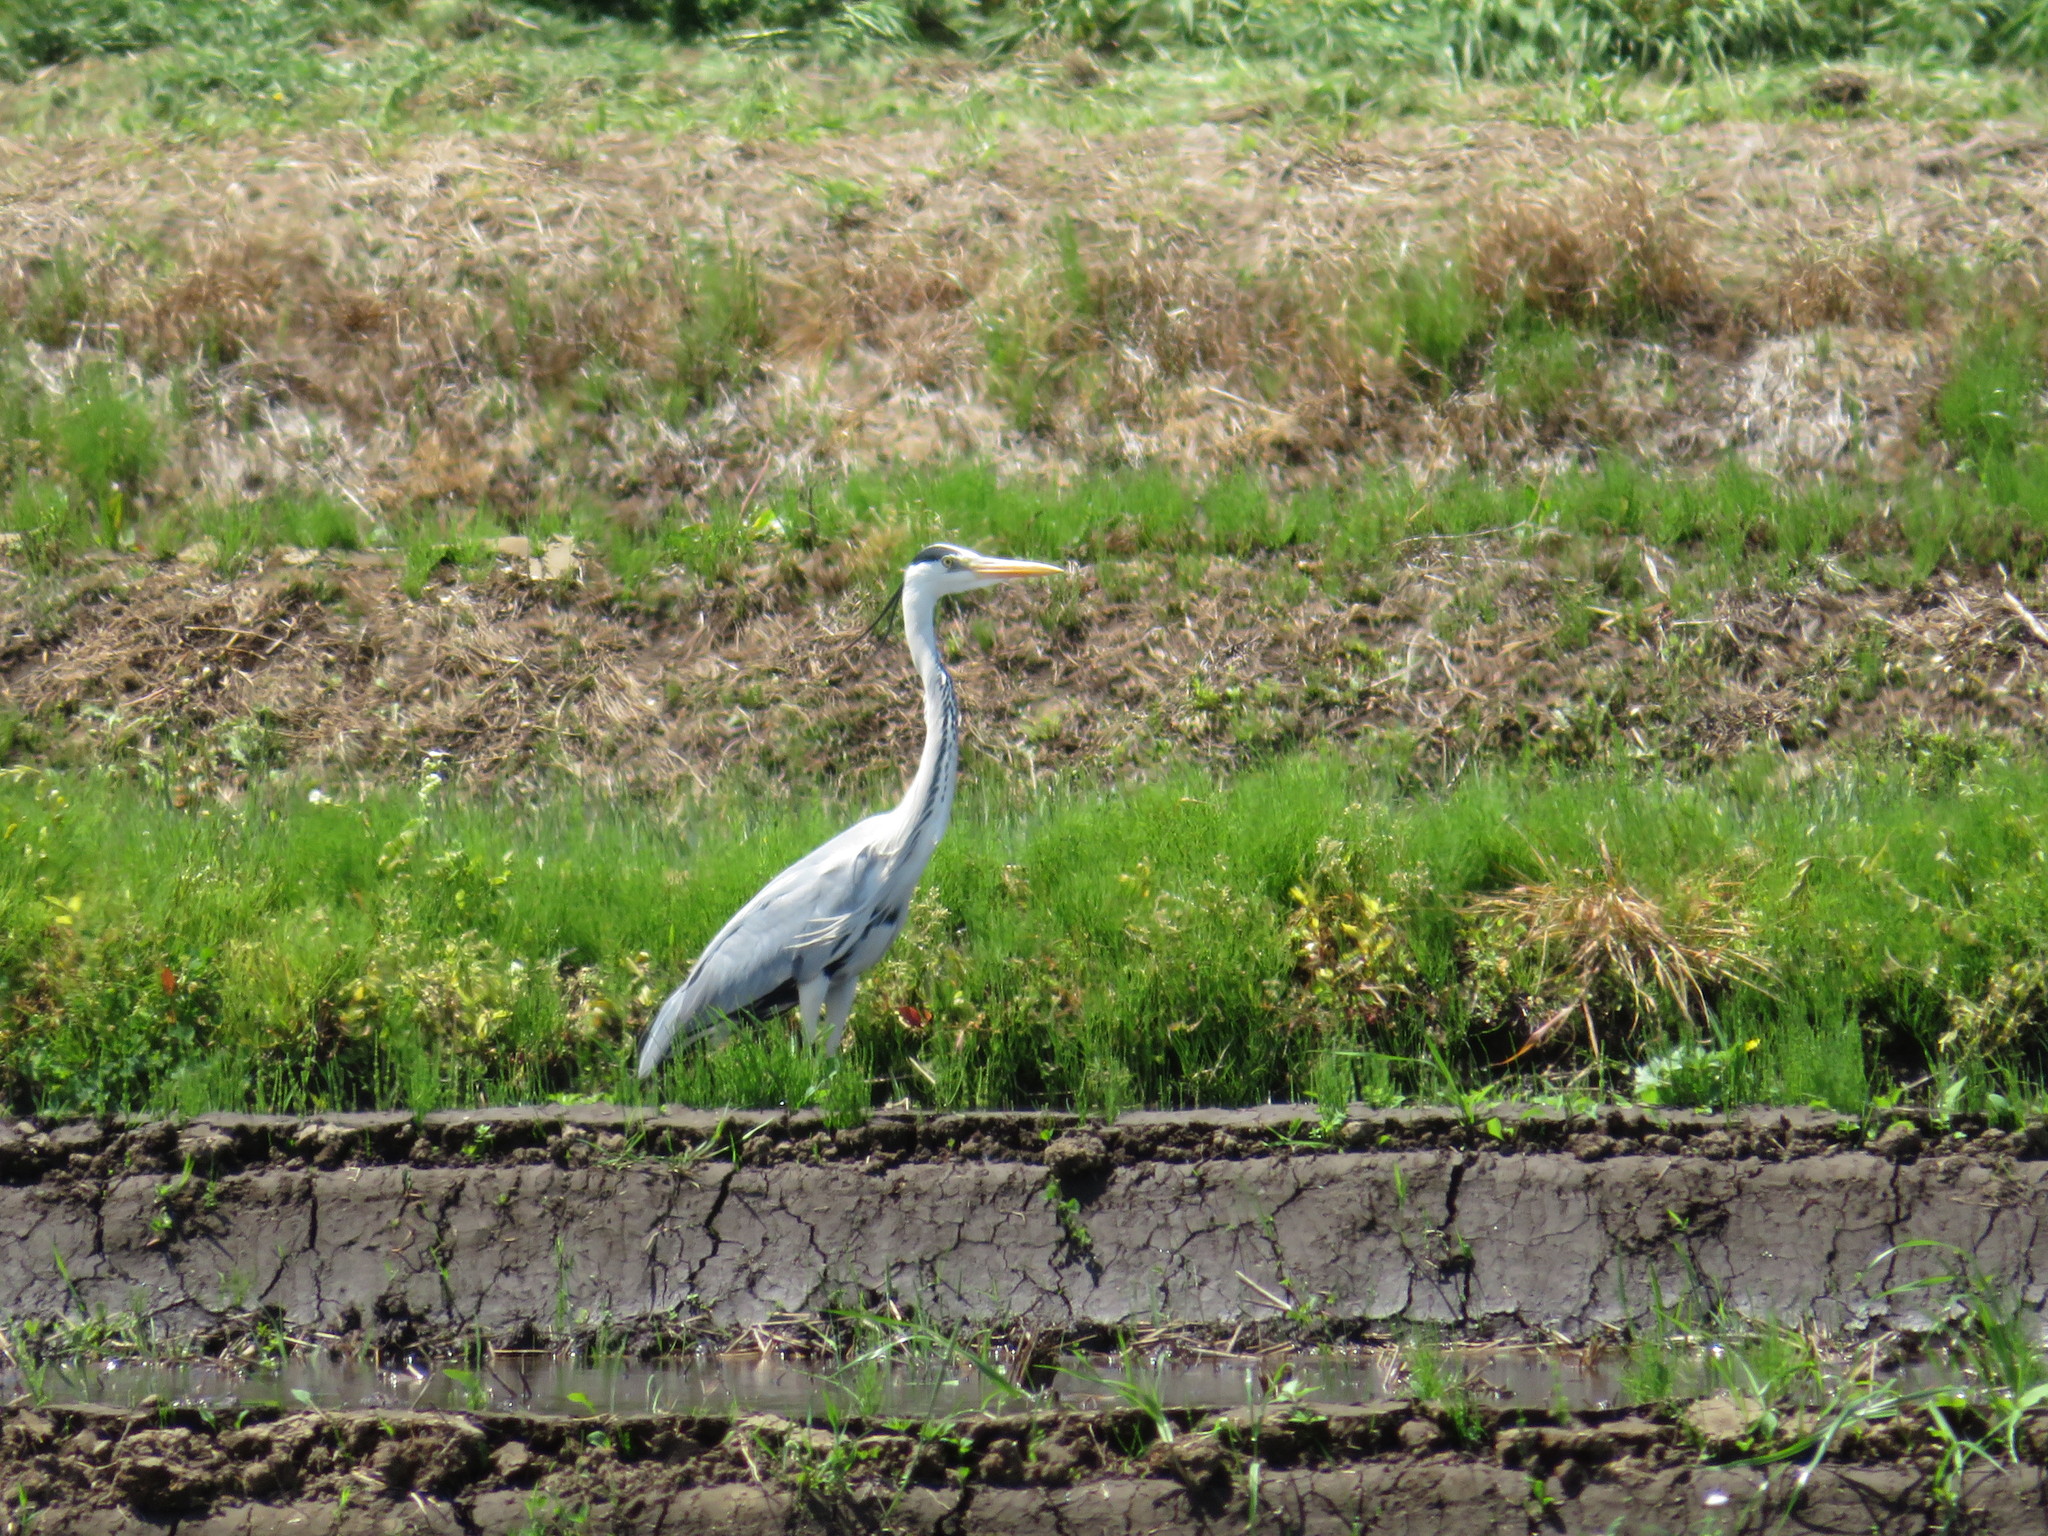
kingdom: Animalia
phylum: Chordata
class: Aves
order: Pelecaniformes
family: Ardeidae
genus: Ardea
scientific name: Ardea cinerea
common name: Grey heron
